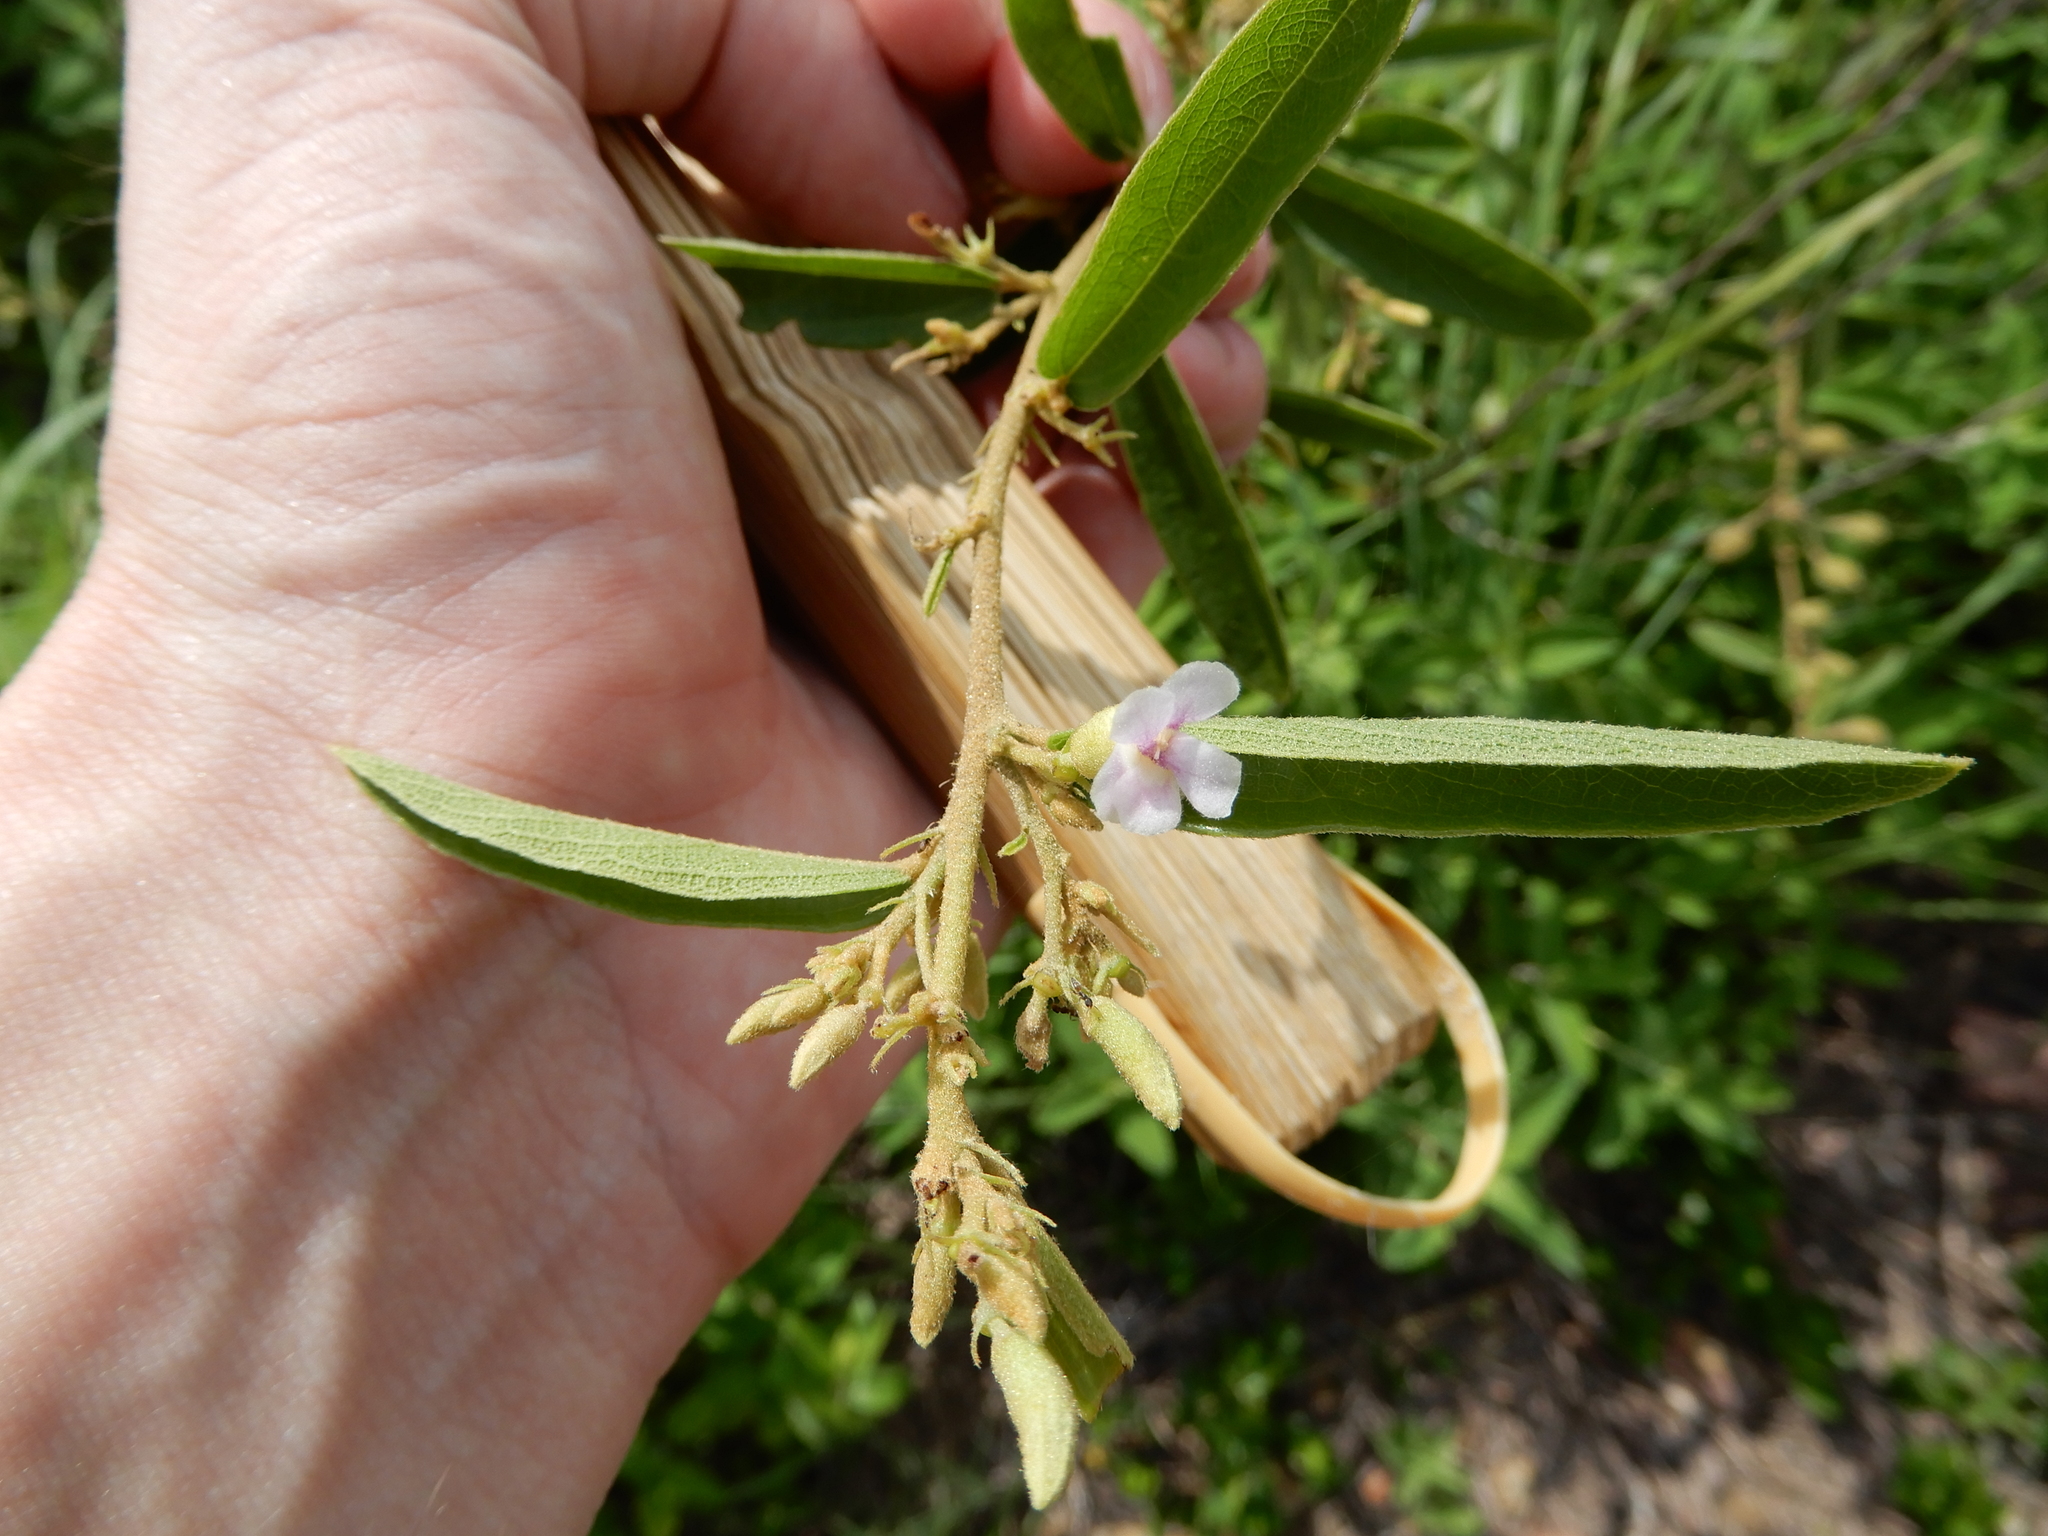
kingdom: Plantae
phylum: Tracheophyta
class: Magnoliopsida
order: Malvales
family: Malvaceae
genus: Helicteres
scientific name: Helicteres angustifolia
